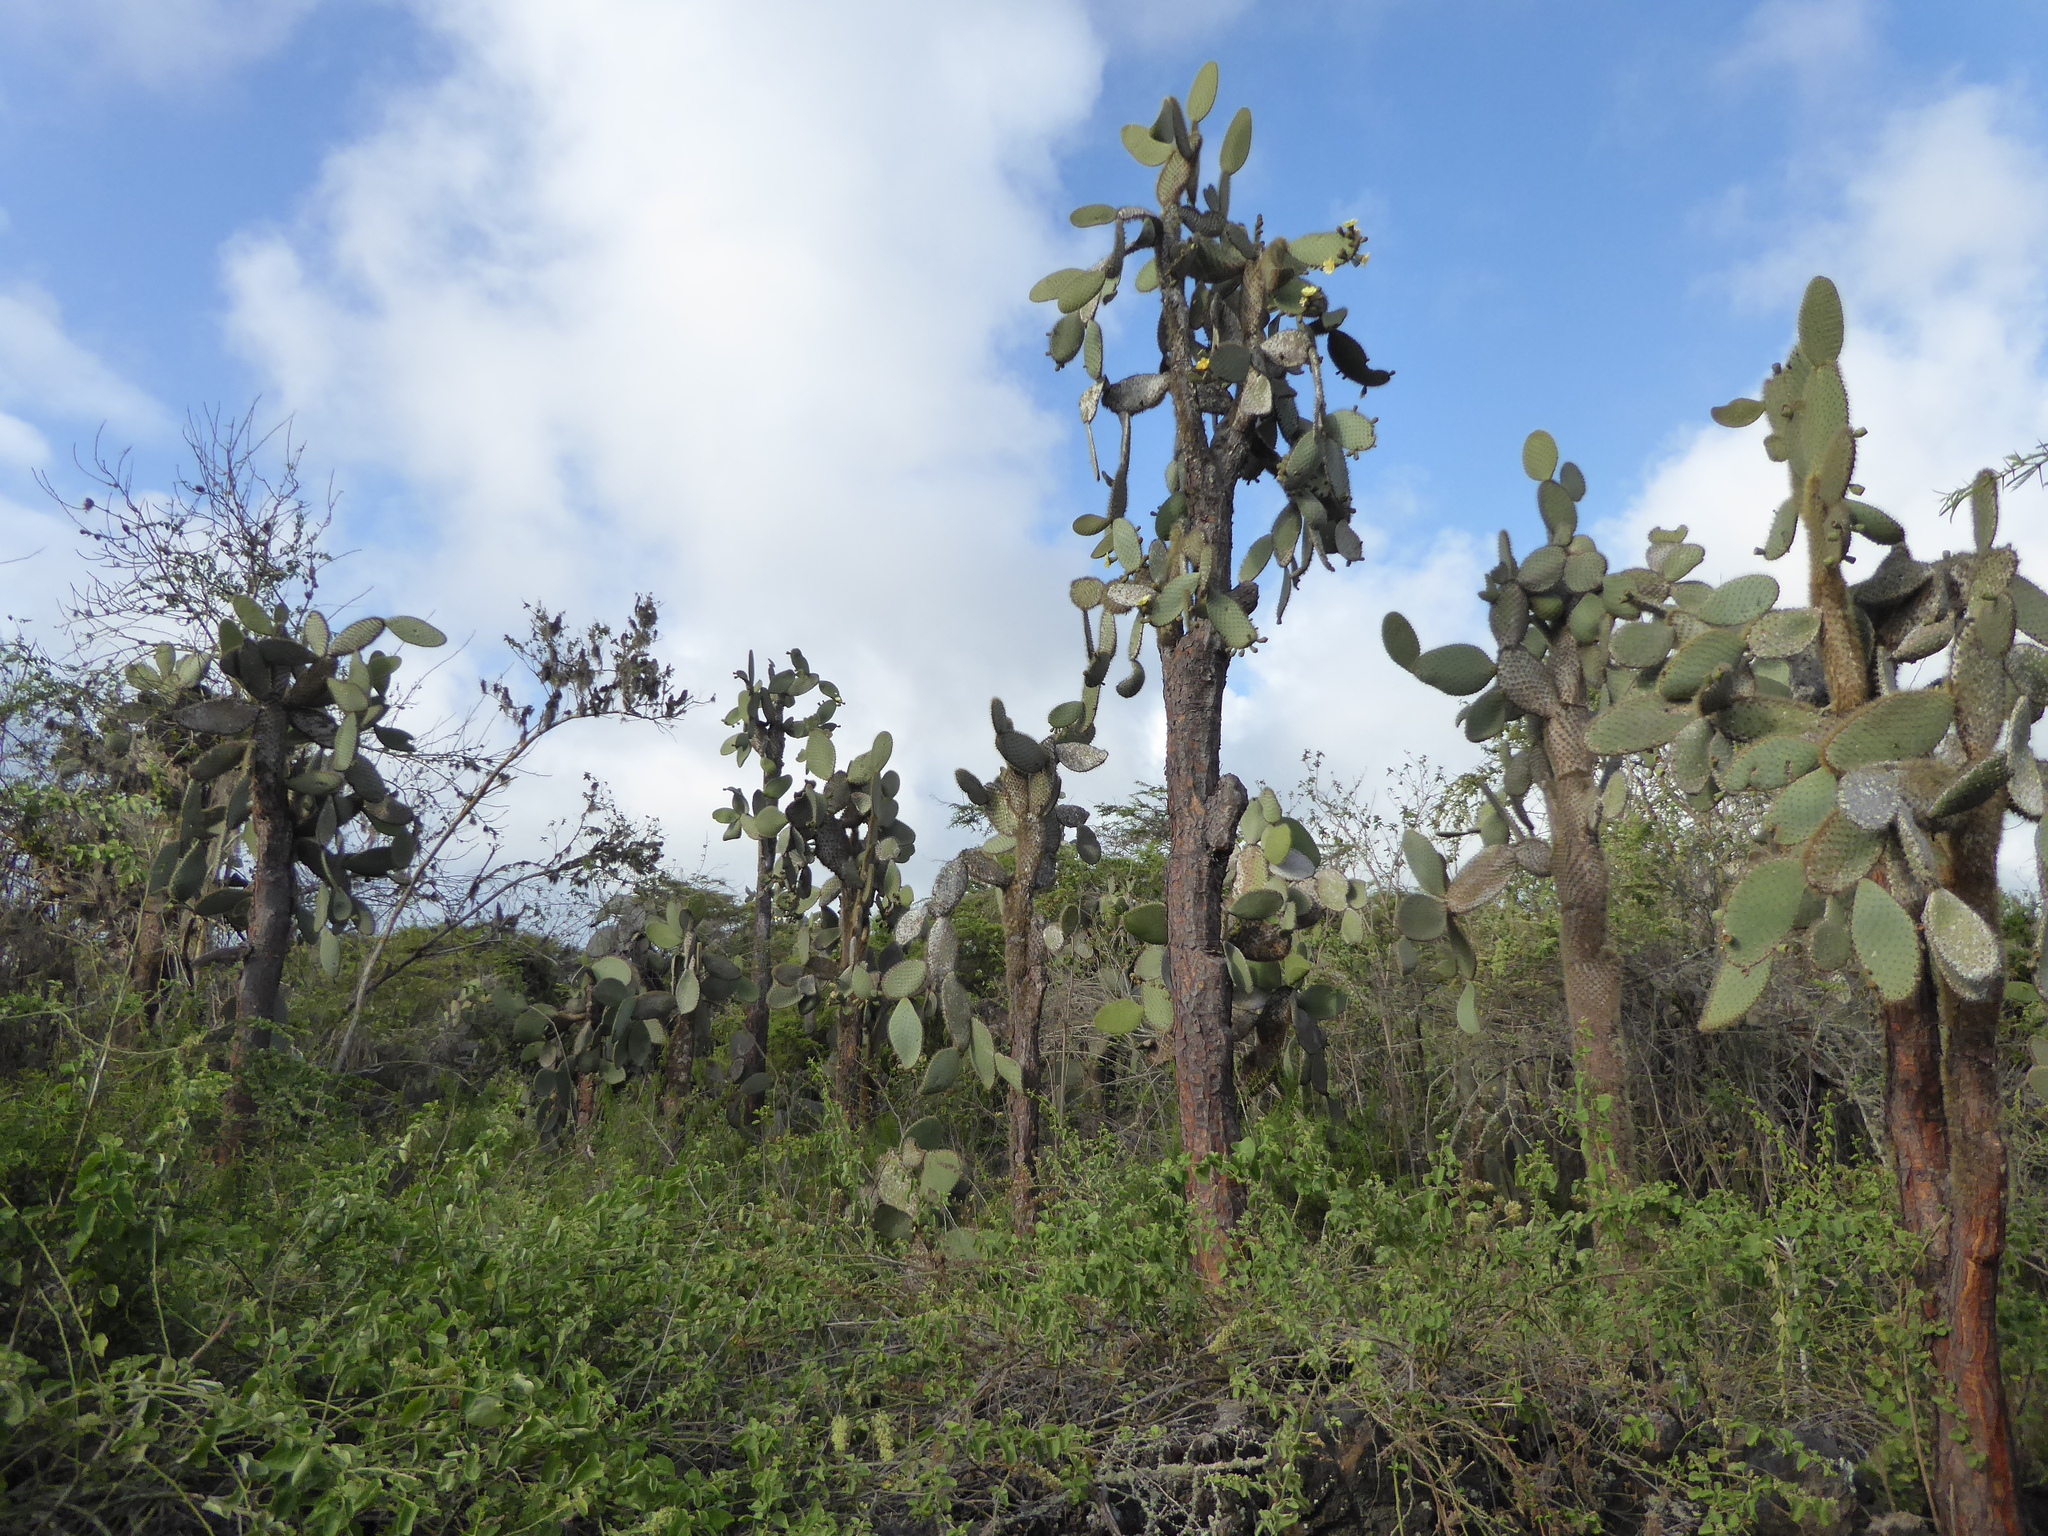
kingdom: Plantae
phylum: Tracheophyta
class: Magnoliopsida
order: Caryophyllales
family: Cactaceae
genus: Opuntia
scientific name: Opuntia galapageia
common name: Galápagos prickly pear
